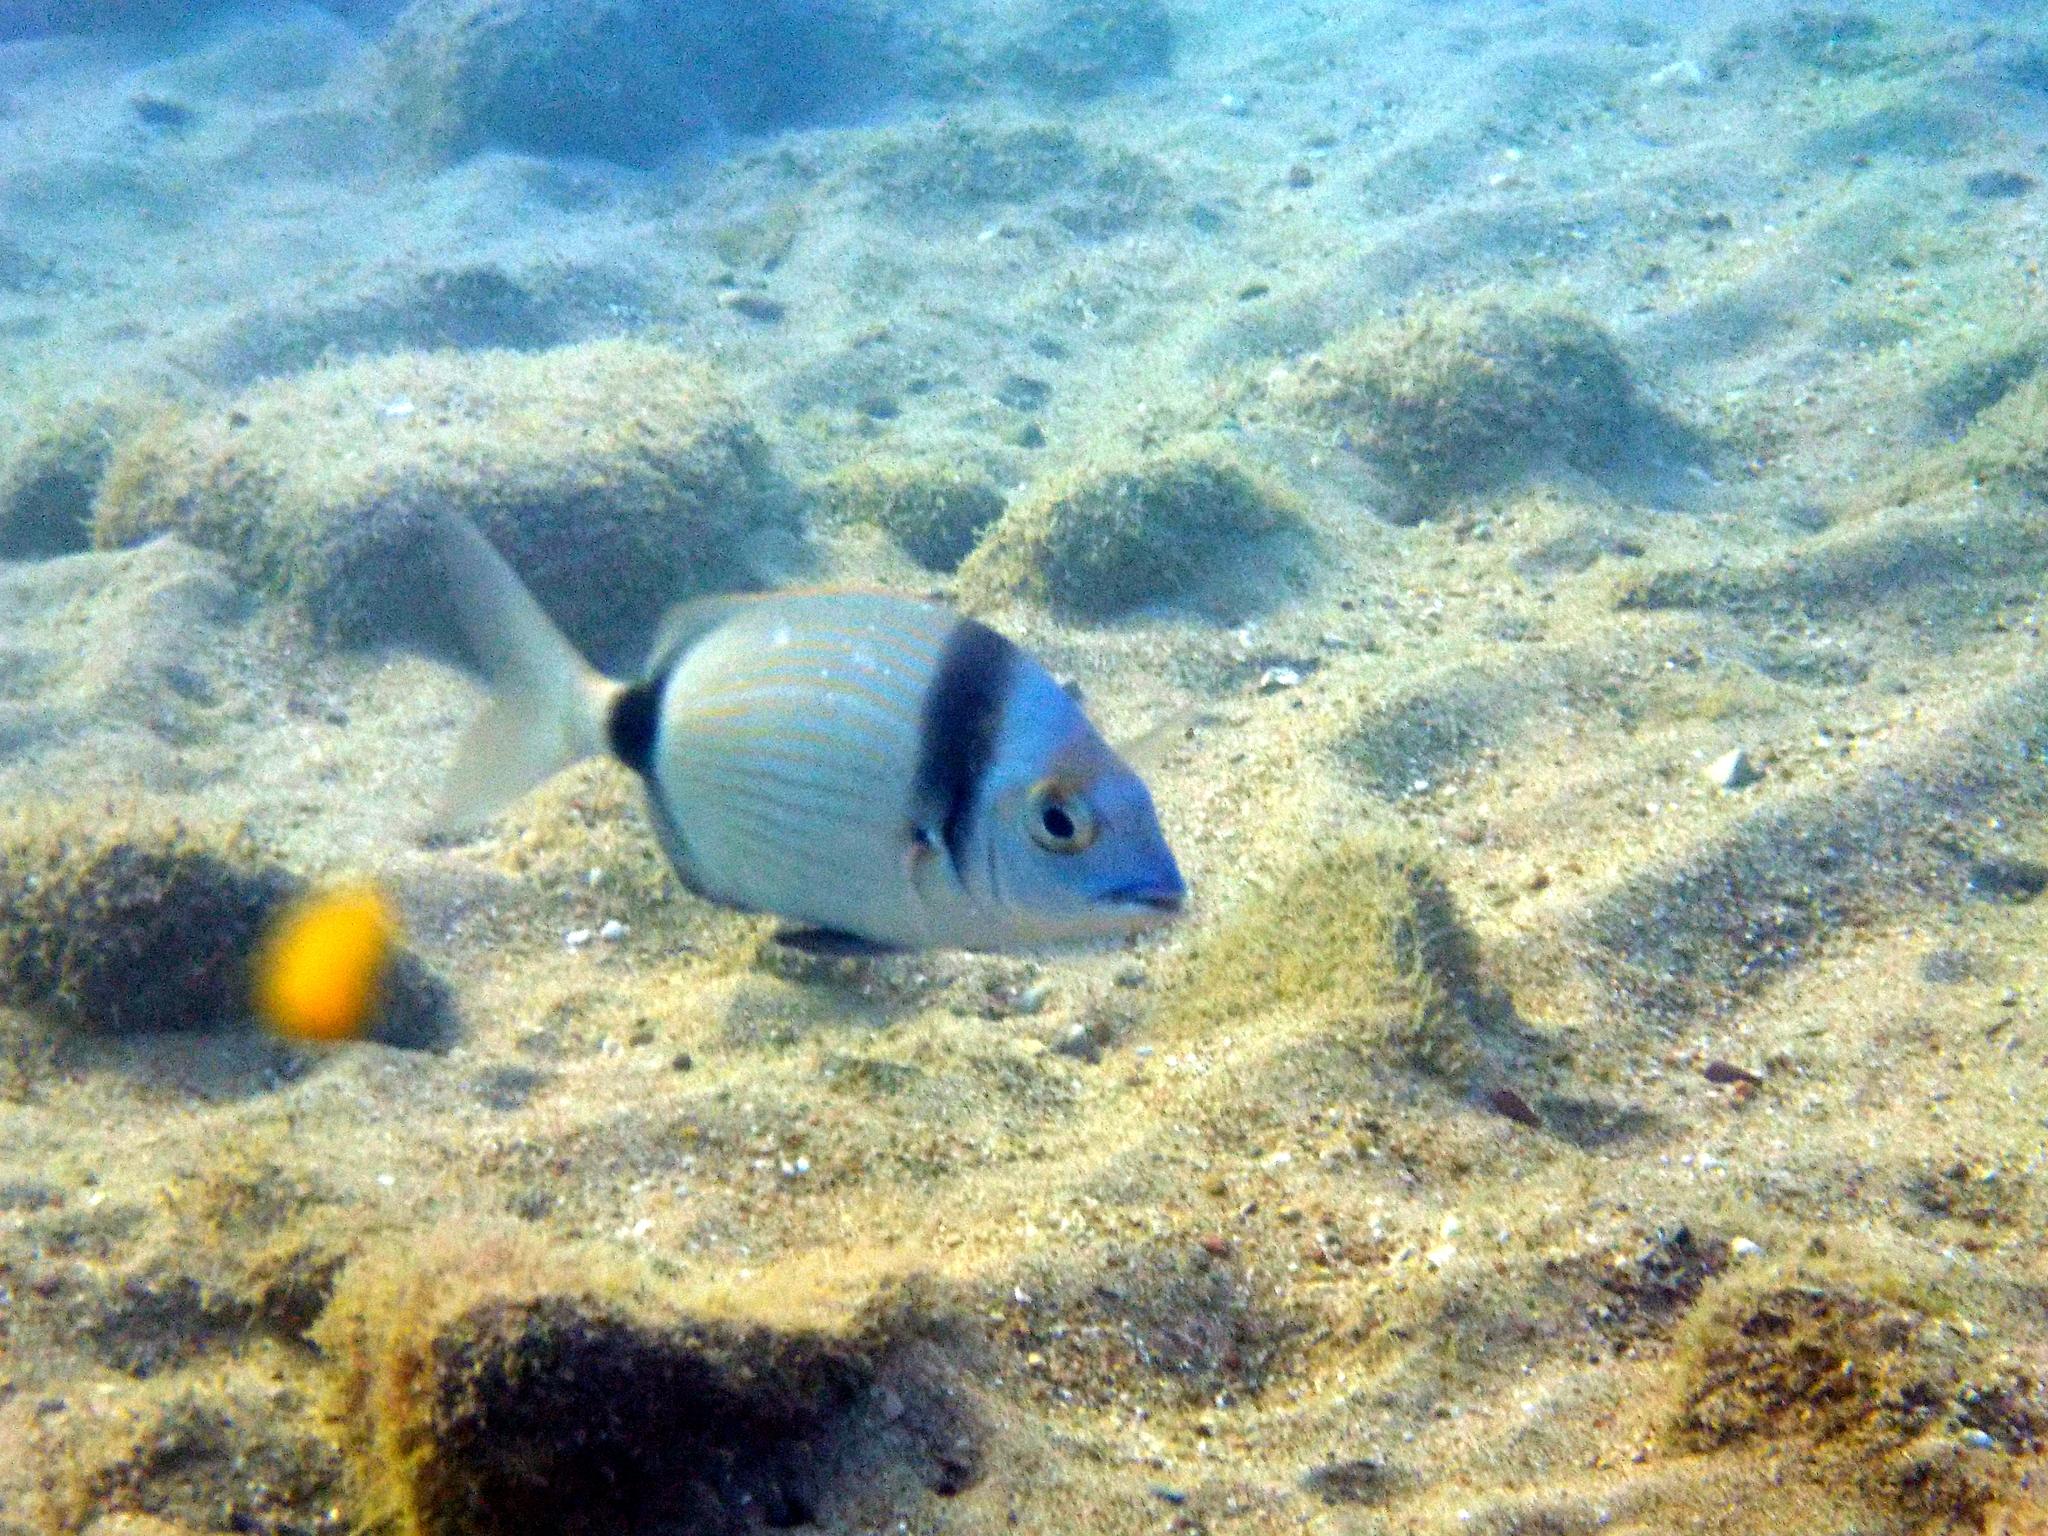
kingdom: Animalia
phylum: Chordata
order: Perciformes
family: Sparidae
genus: Diplodus
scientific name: Diplodus vulgaris
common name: Common two-banded seabream
